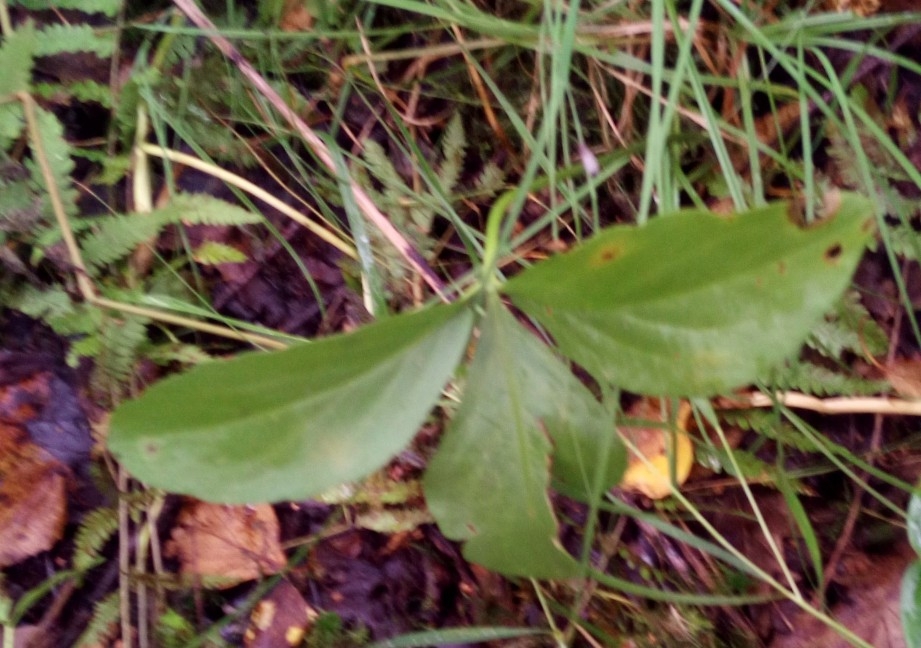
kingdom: Plantae
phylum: Tracheophyta
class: Magnoliopsida
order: Asterales
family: Menyanthaceae
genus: Menyanthes
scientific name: Menyanthes trifoliata
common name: Bogbean
